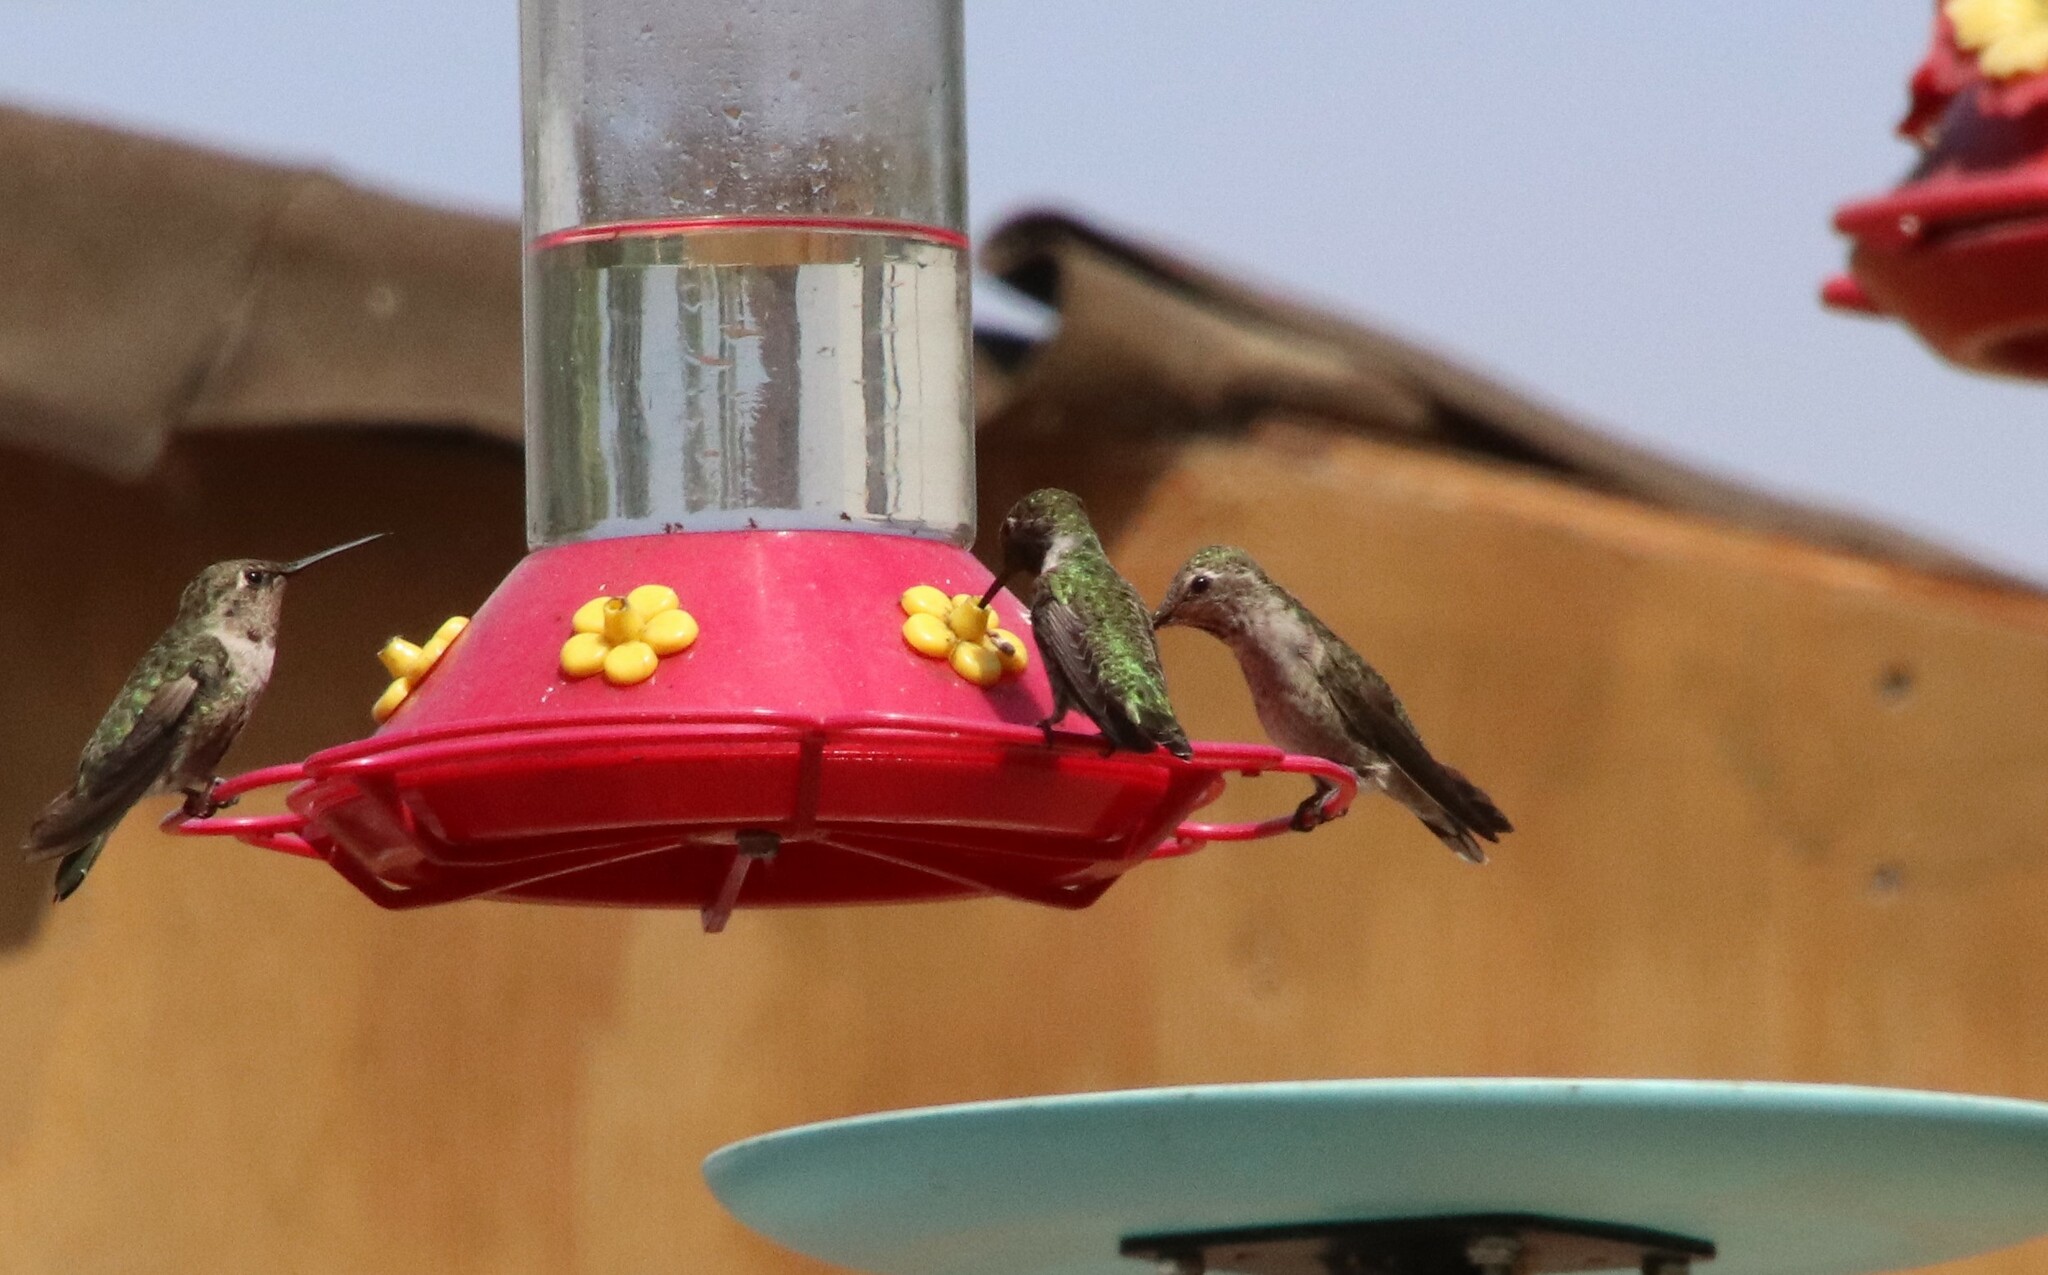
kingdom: Animalia
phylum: Chordata
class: Aves
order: Apodiformes
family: Trochilidae
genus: Archilochus
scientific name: Archilochus alexandri
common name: Black-chinned hummingbird
